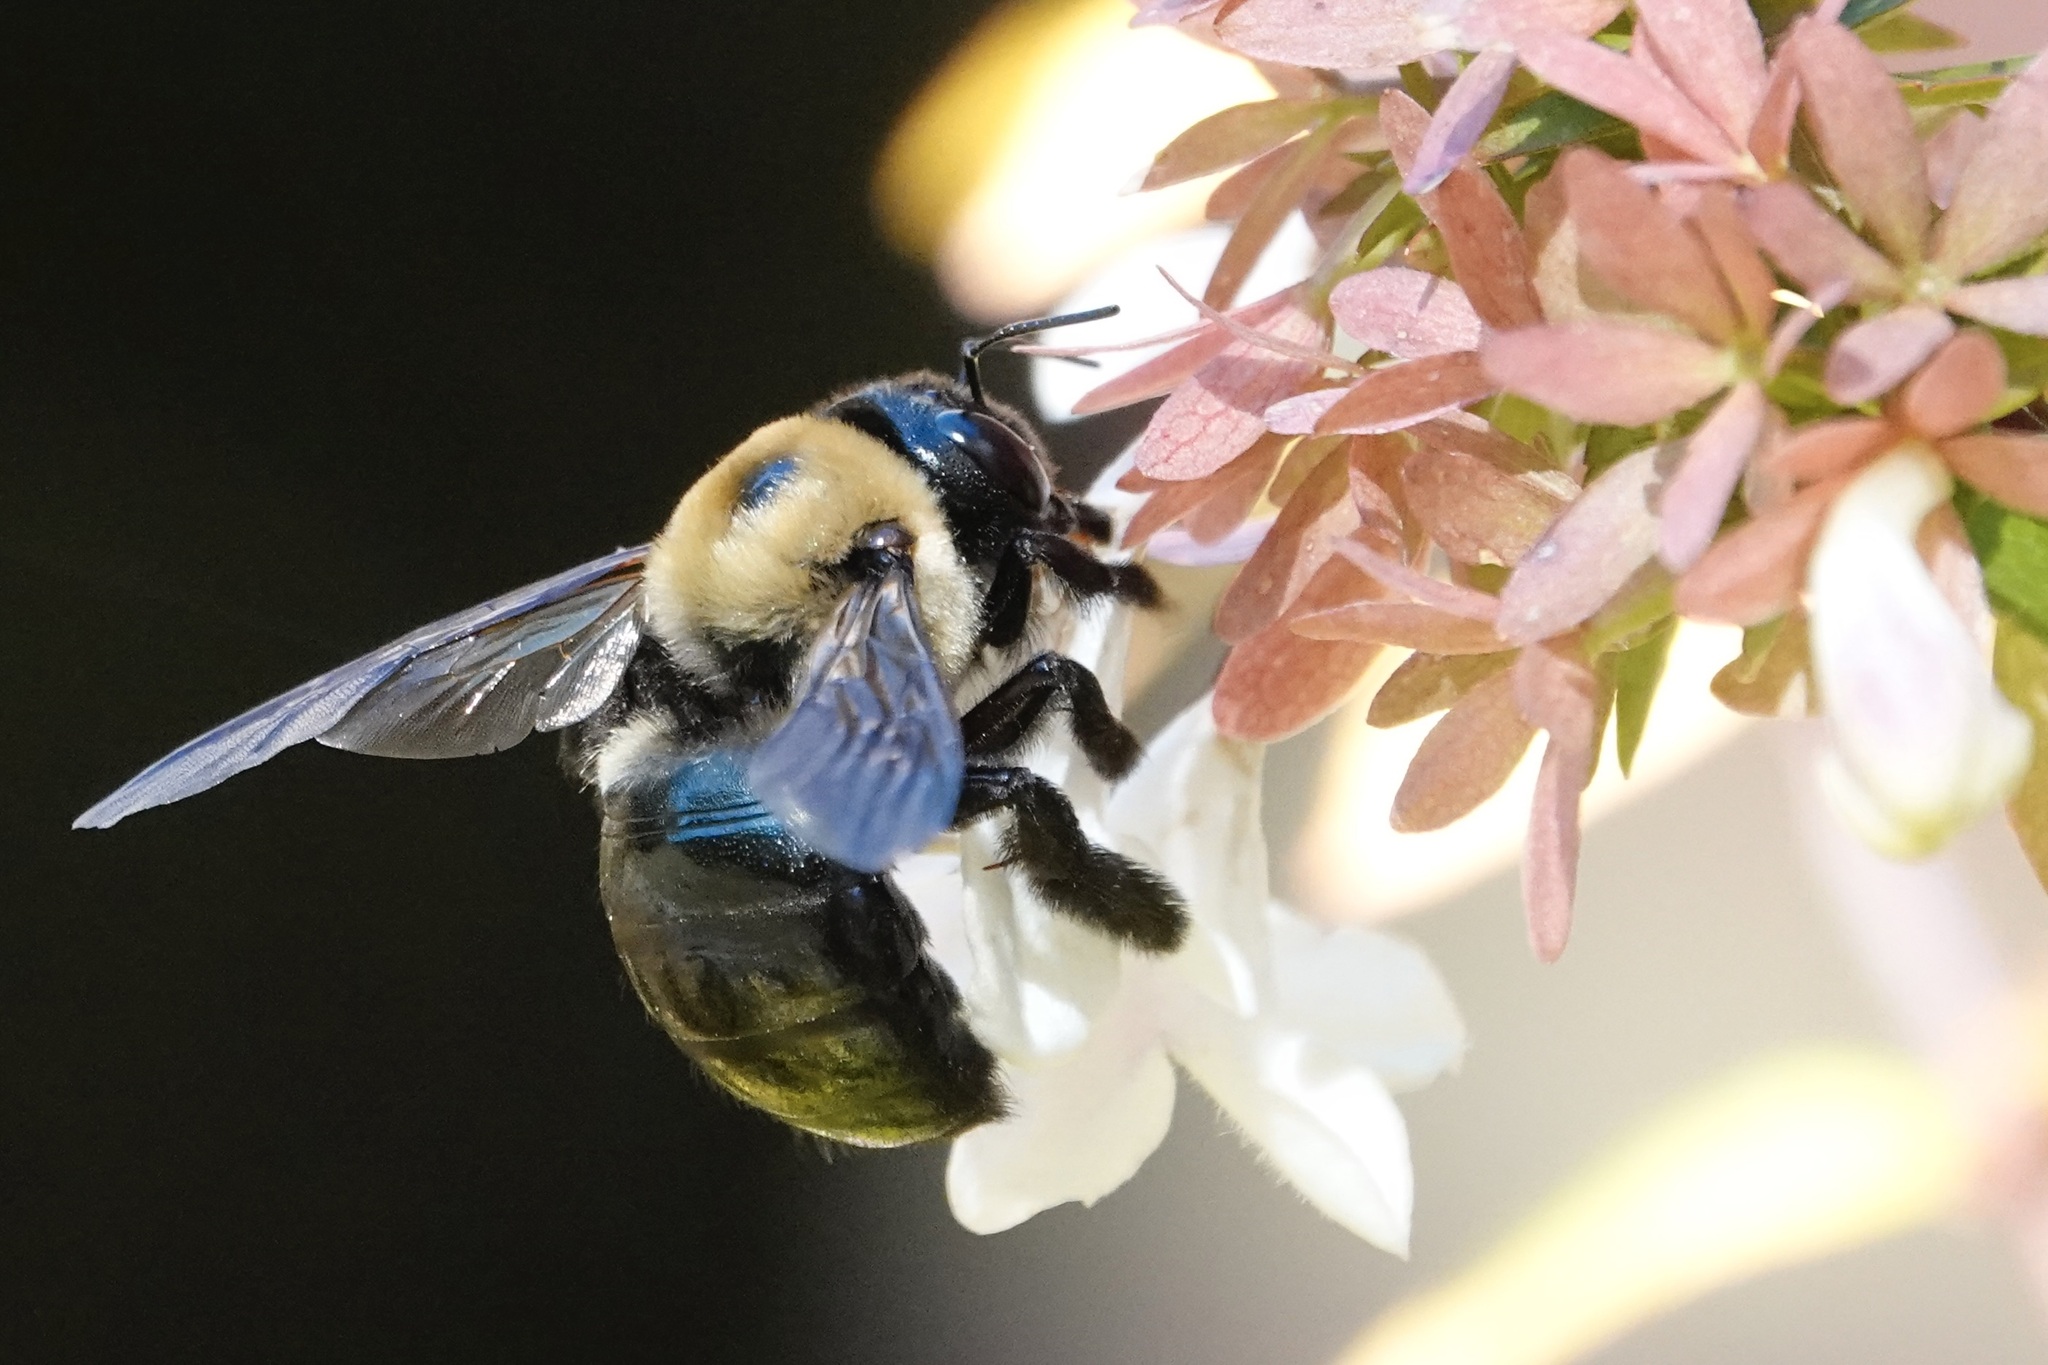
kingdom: Animalia
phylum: Arthropoda
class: Insecta
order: Hymenoptera
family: Apidae
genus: Xylocopa
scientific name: Xylocopa virginica
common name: Carpenter bee
